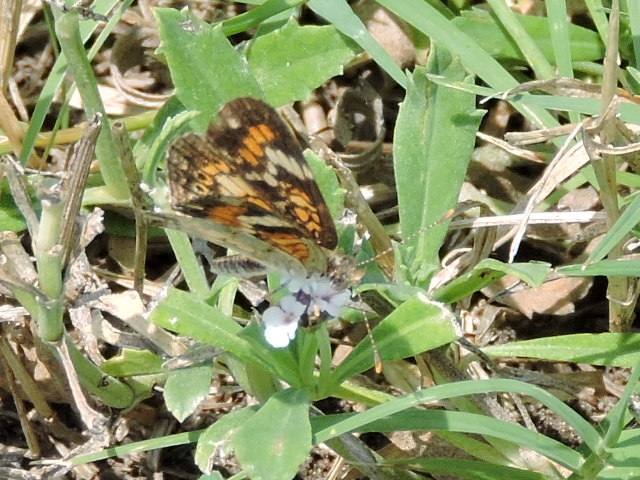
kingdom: Animalia
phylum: Arthropoda
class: Insecta
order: Lepidoptera
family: Nymphalidae
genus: Phyciodes
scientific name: Phyciodes phaon
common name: Phaon crescent
